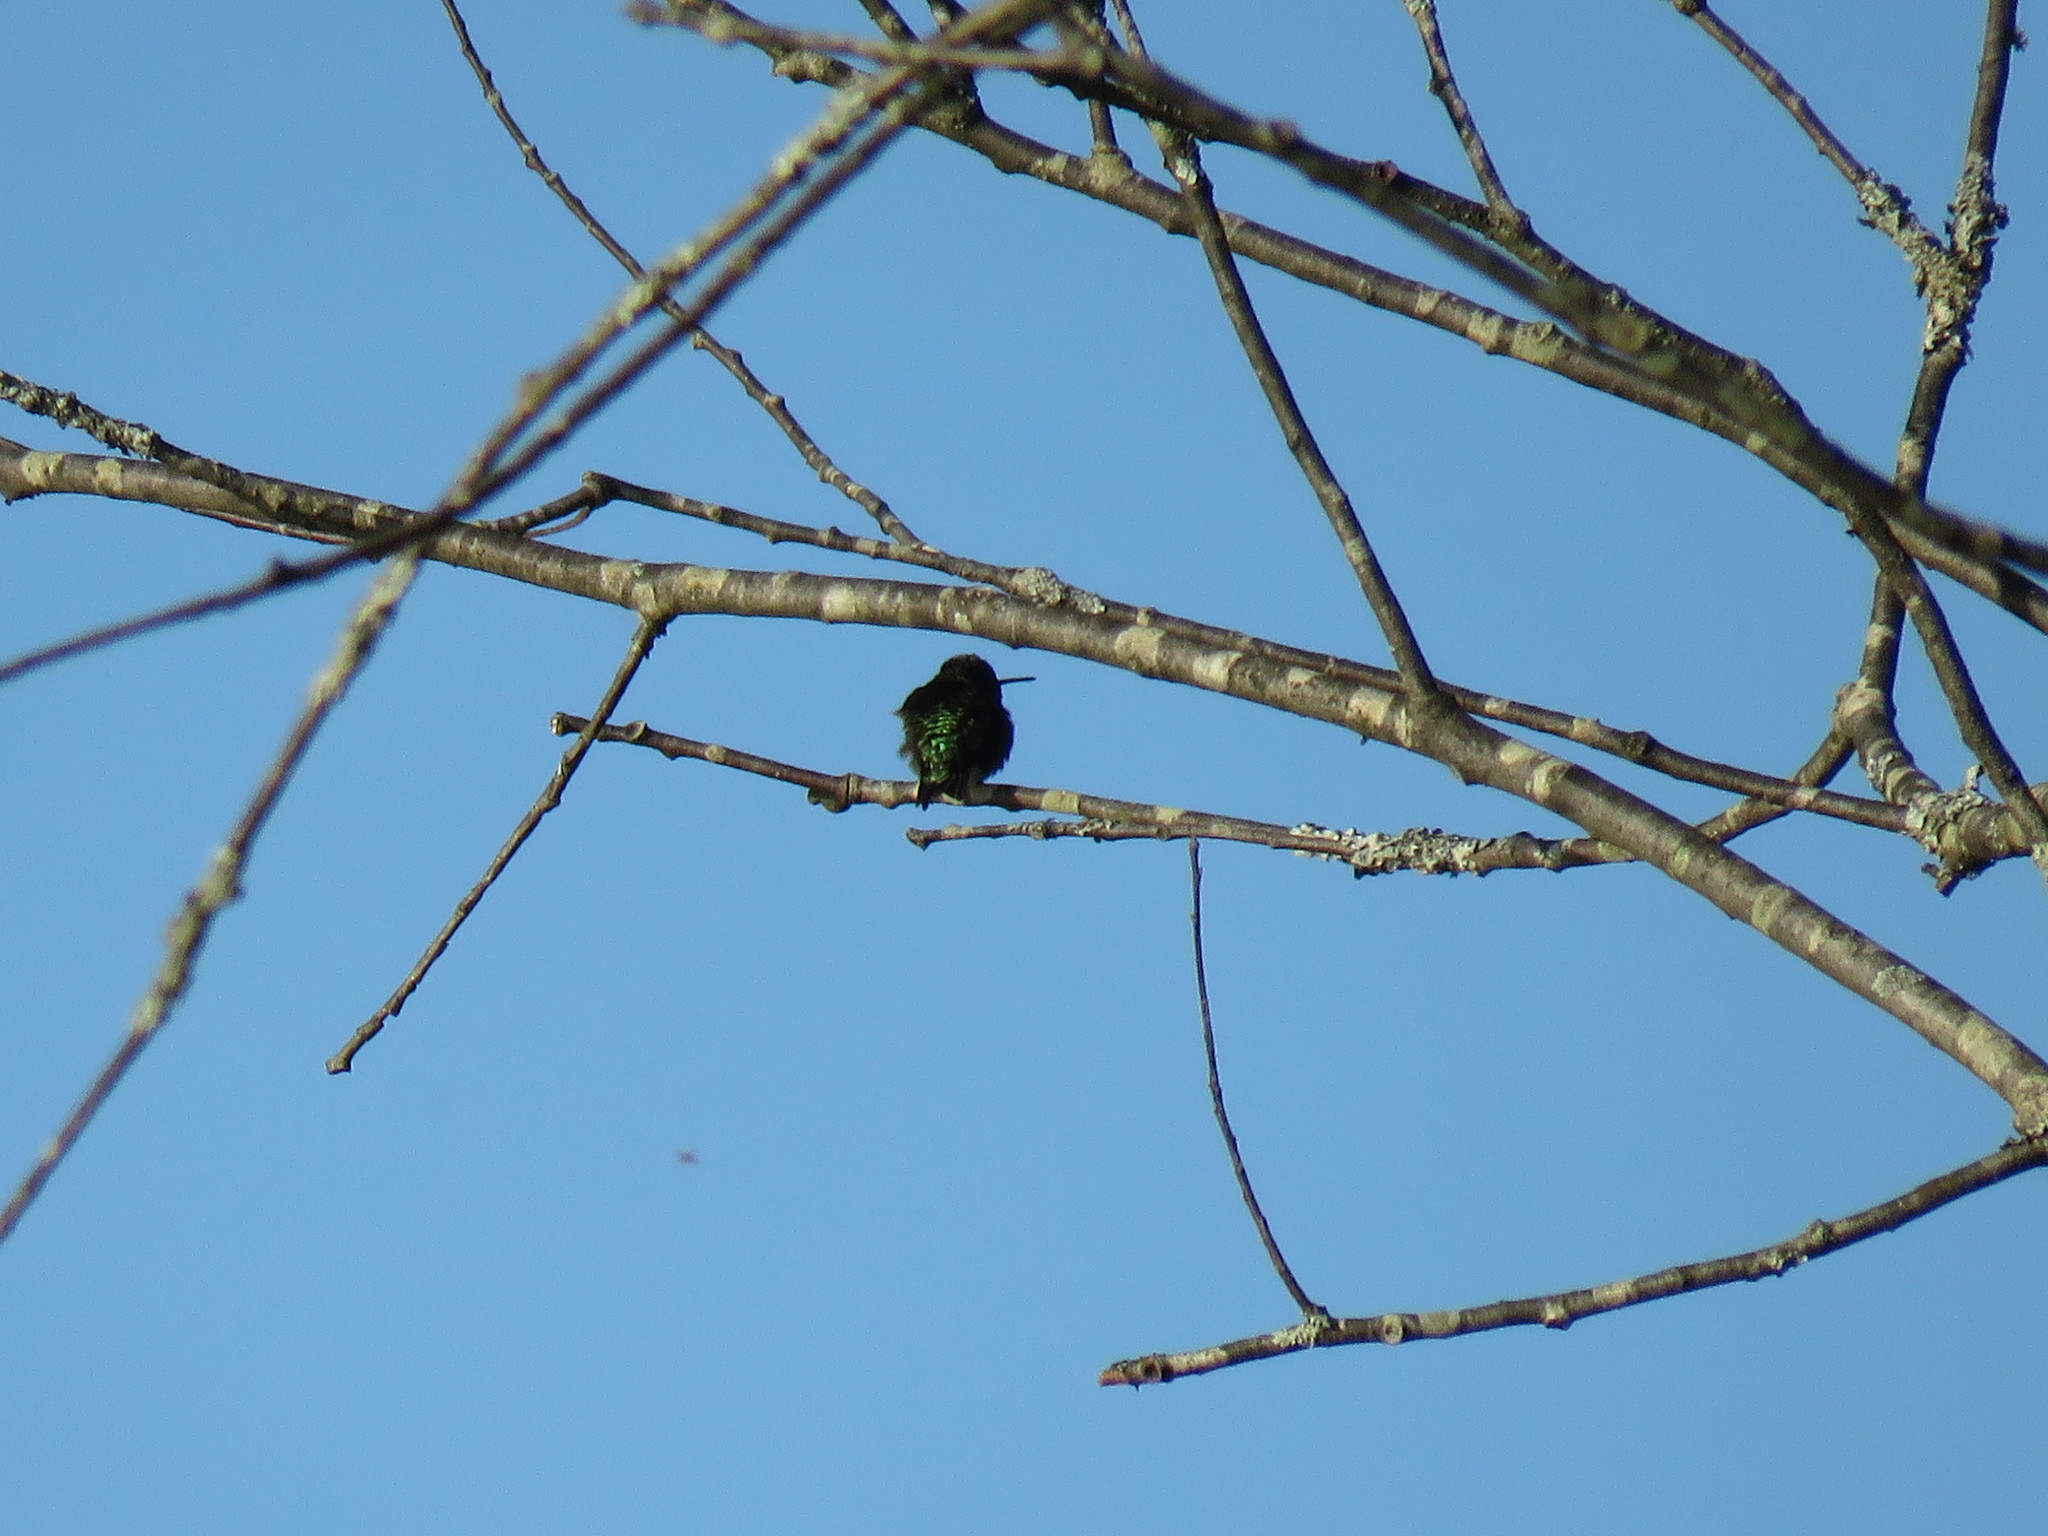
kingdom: Animalia
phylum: Chordata
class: Aves
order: Apodiformes
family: Trochilidae
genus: Archilochus
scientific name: Archilochus colubris
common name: Ruby-throated hummingbird
